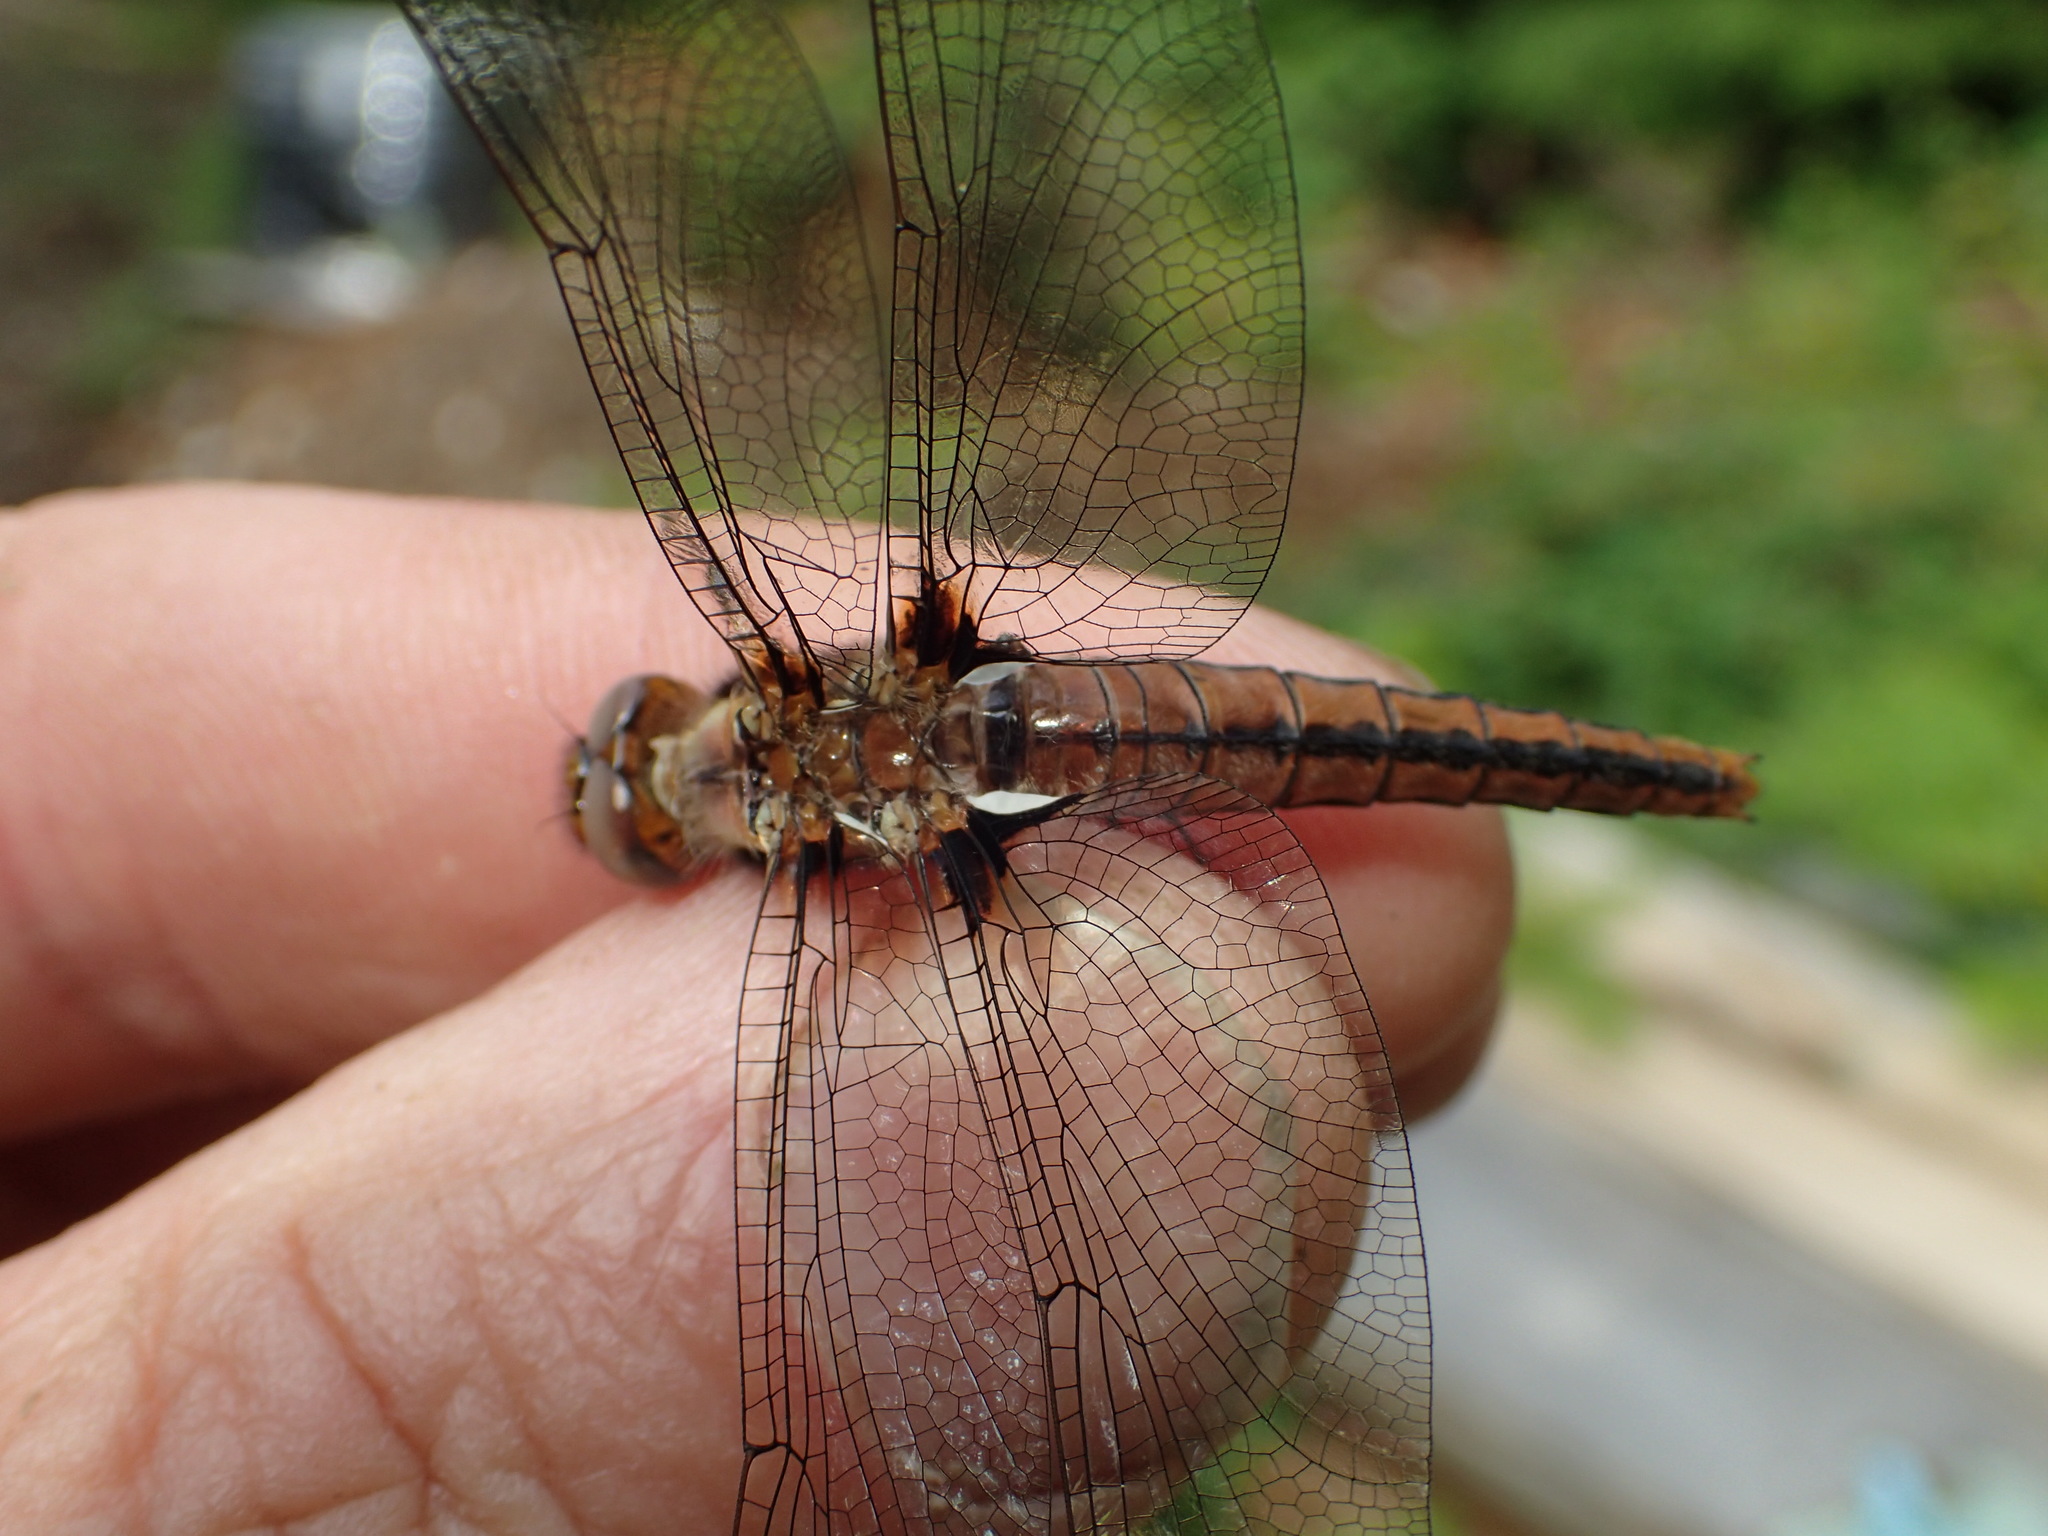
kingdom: Animalia
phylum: Arthropoda
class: Insecta
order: Odonata
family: Libellulidae
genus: Ladona
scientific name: Ladona julia
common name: Chalk-fronted corporal
